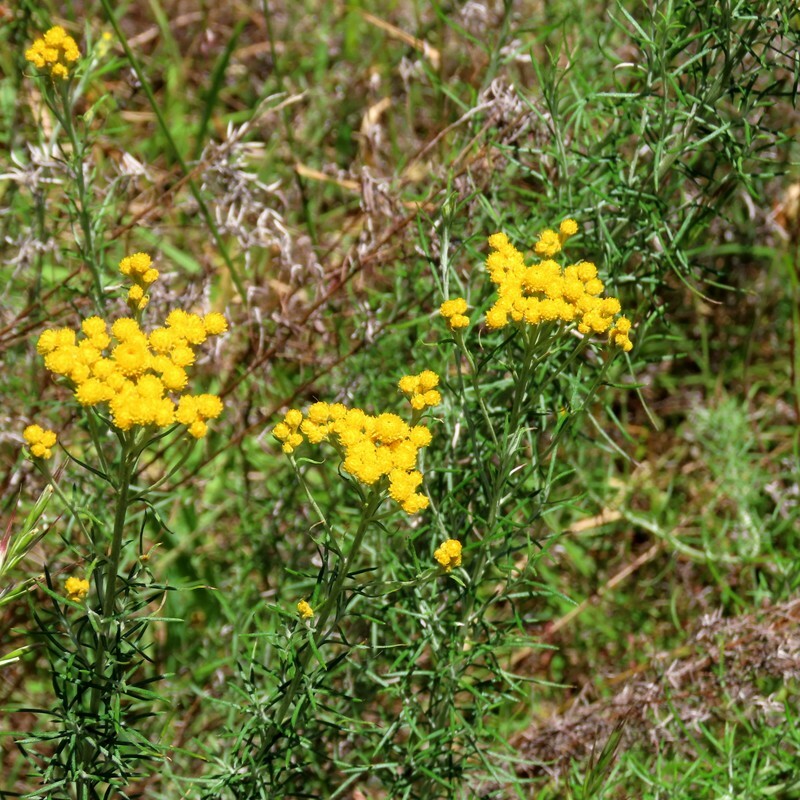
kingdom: Plantae
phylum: Tracheophyta
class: Magnoliopsida
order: Asterales
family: Asteraceae
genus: Chrysocephalum
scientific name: Chrysocephalum semipapposum
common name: Clustered everlasting
